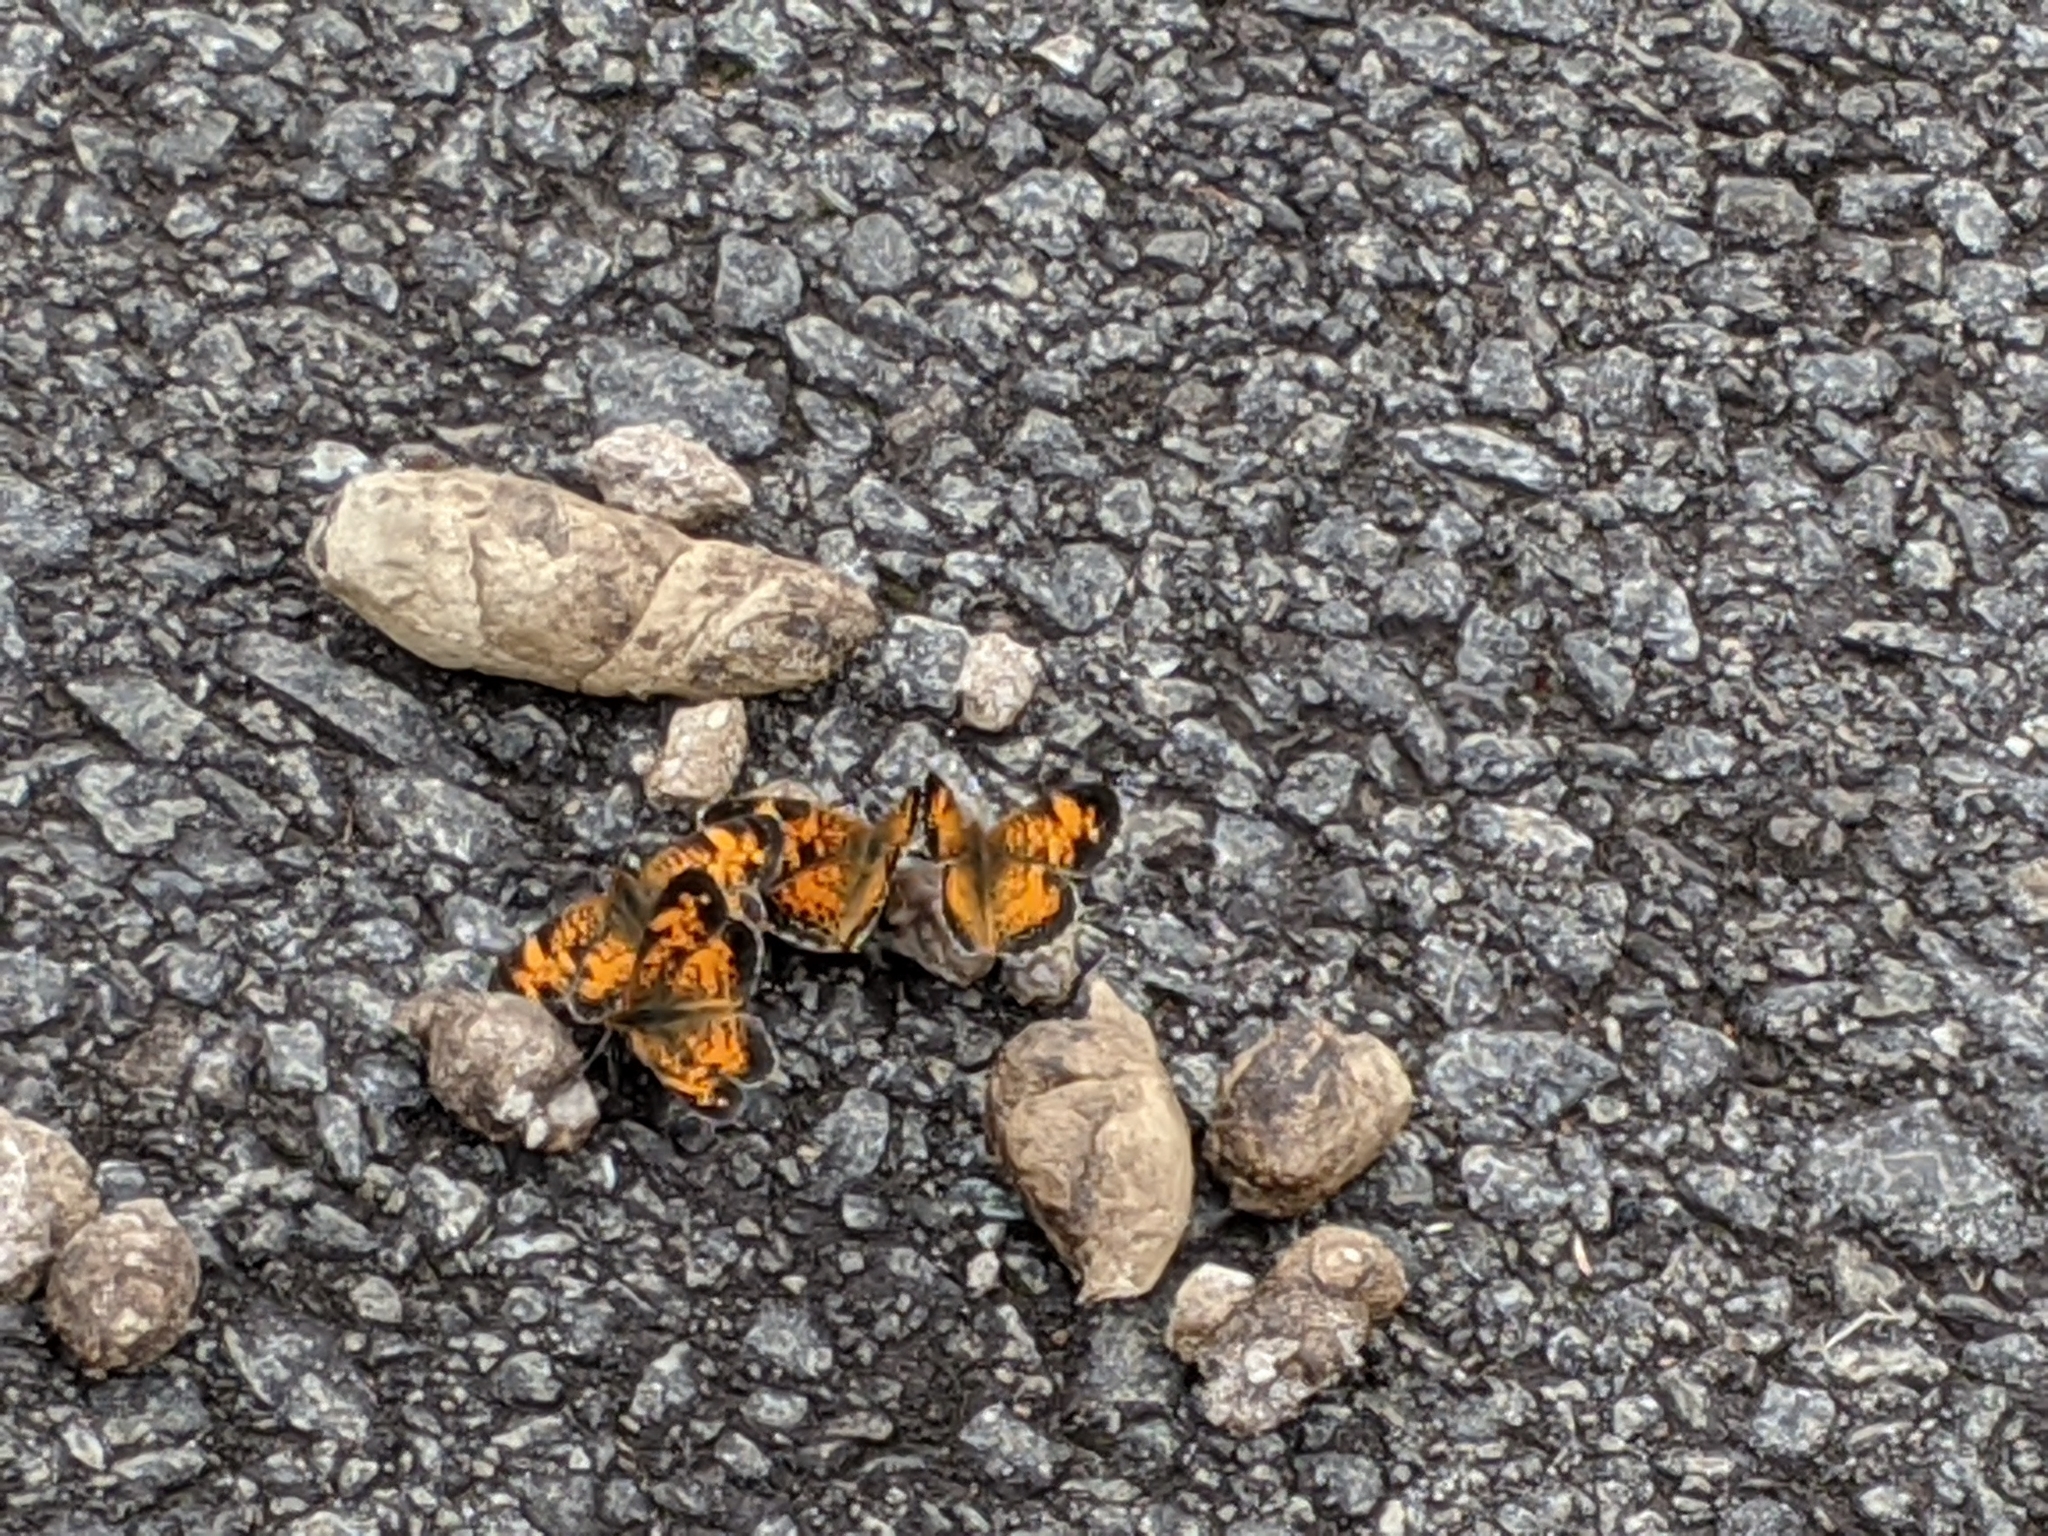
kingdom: Animalia
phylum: Arthropoda
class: Insecta
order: Lepidoptera
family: Nymphalidae
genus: Phyciodes
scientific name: Phyciodes tharos
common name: Pearl crescent
